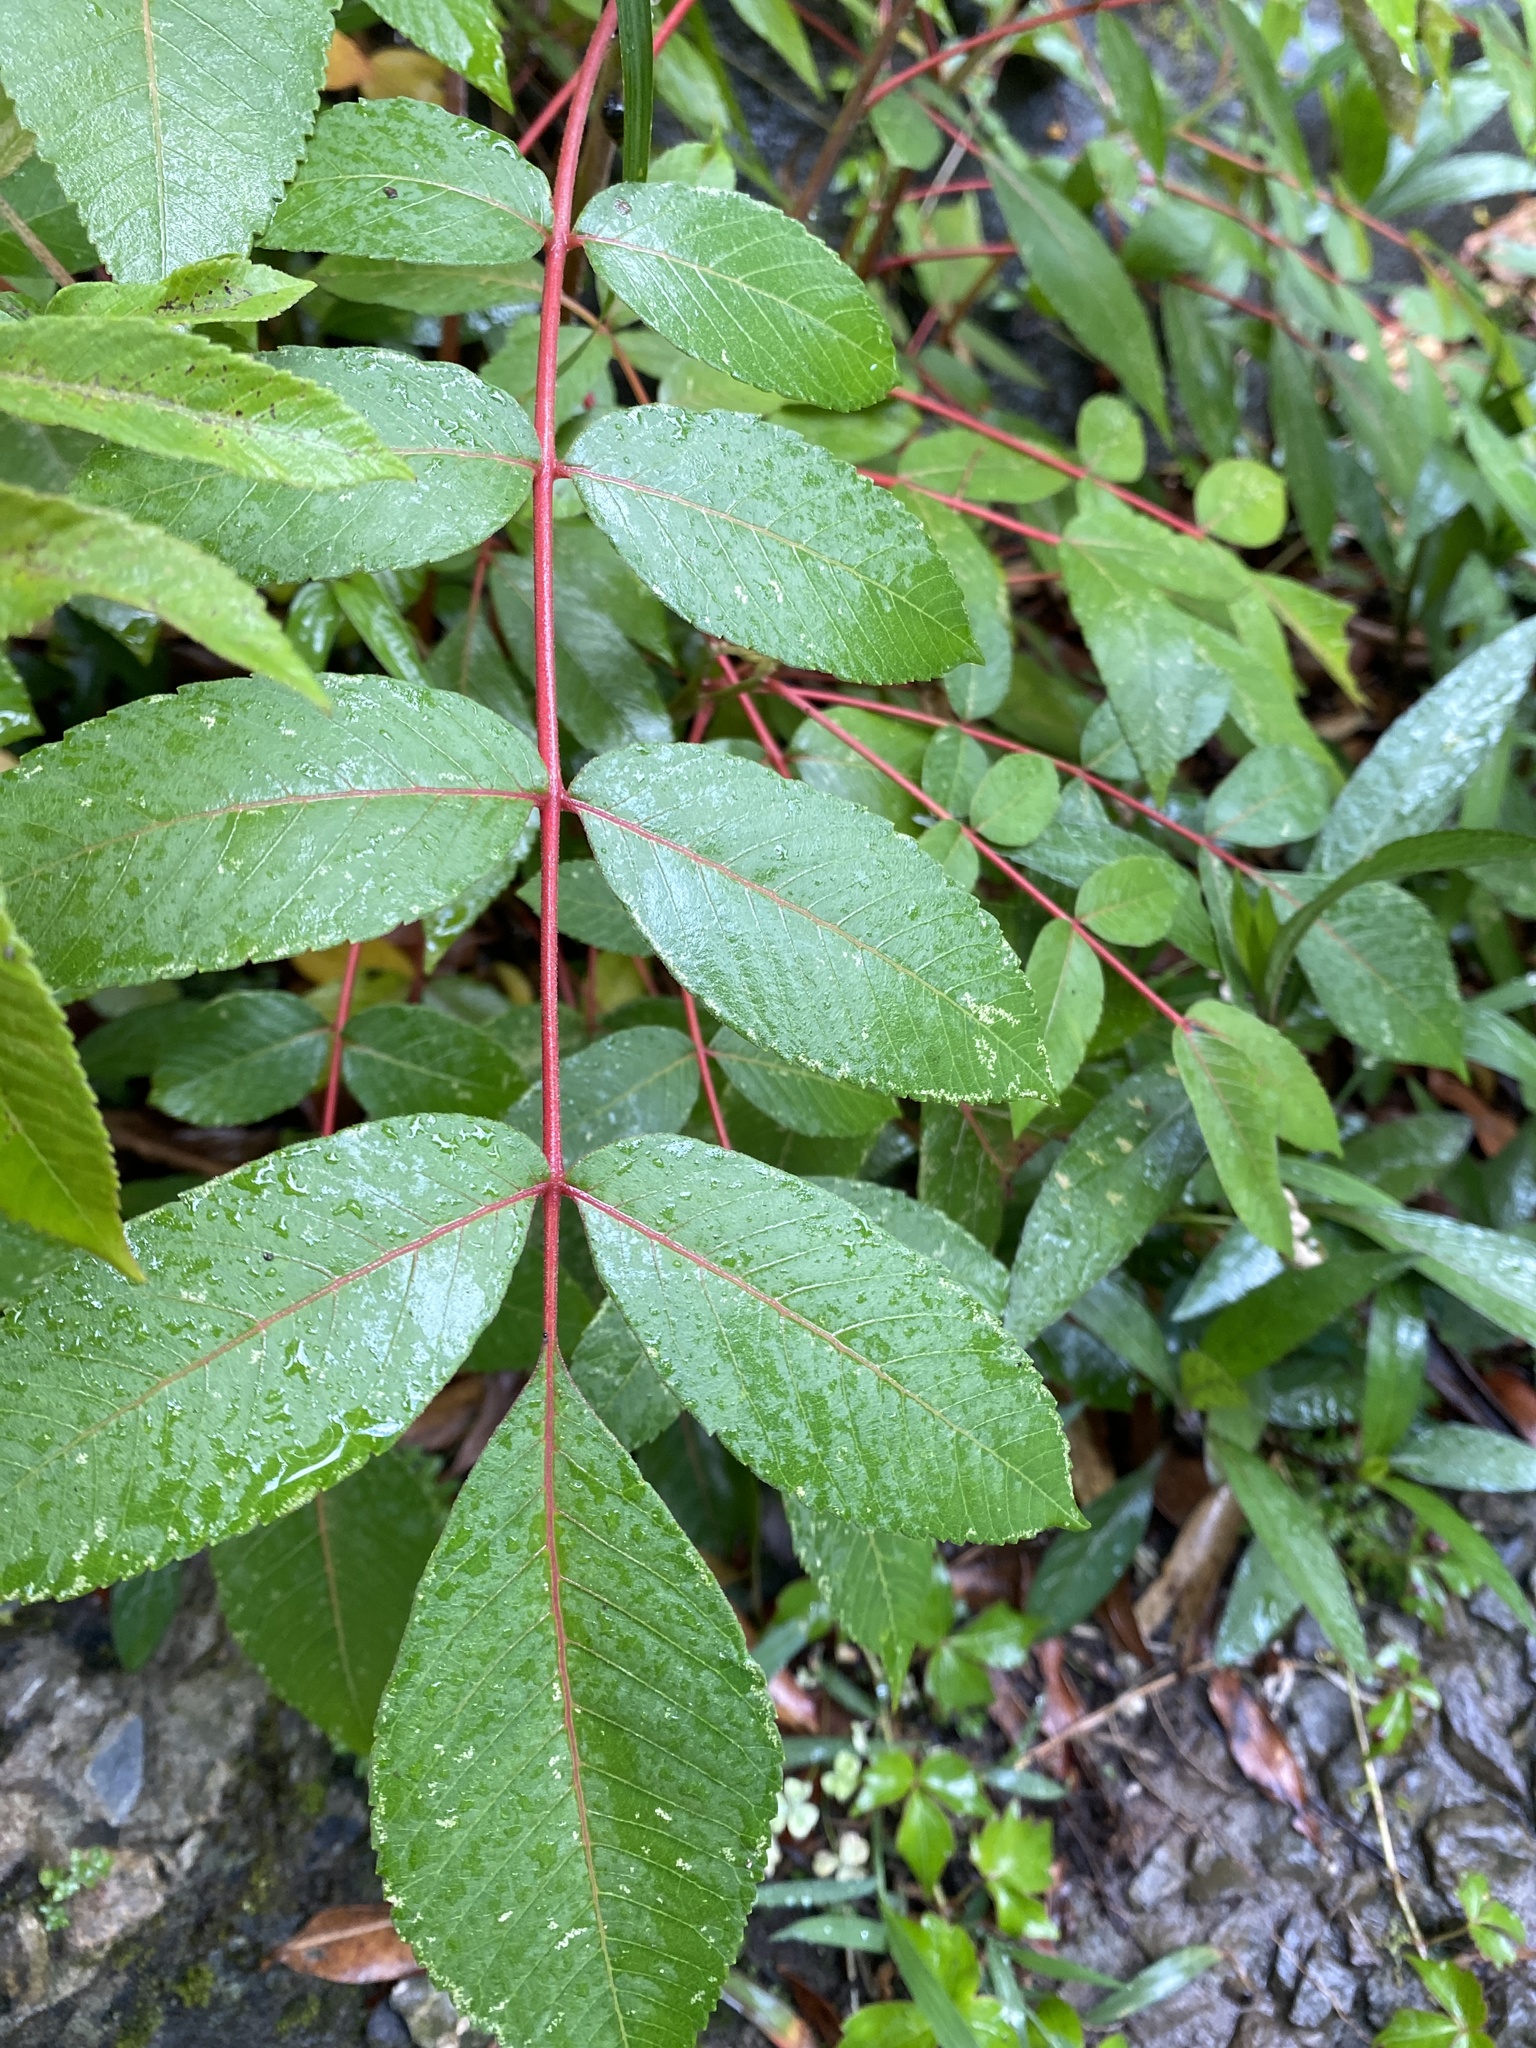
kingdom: Plantae
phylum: Tracheophyta
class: Magnoliopsida
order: Sapindales
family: Anacardiaceae
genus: Rhus
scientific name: Rhus chinensis
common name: Chinese gall
